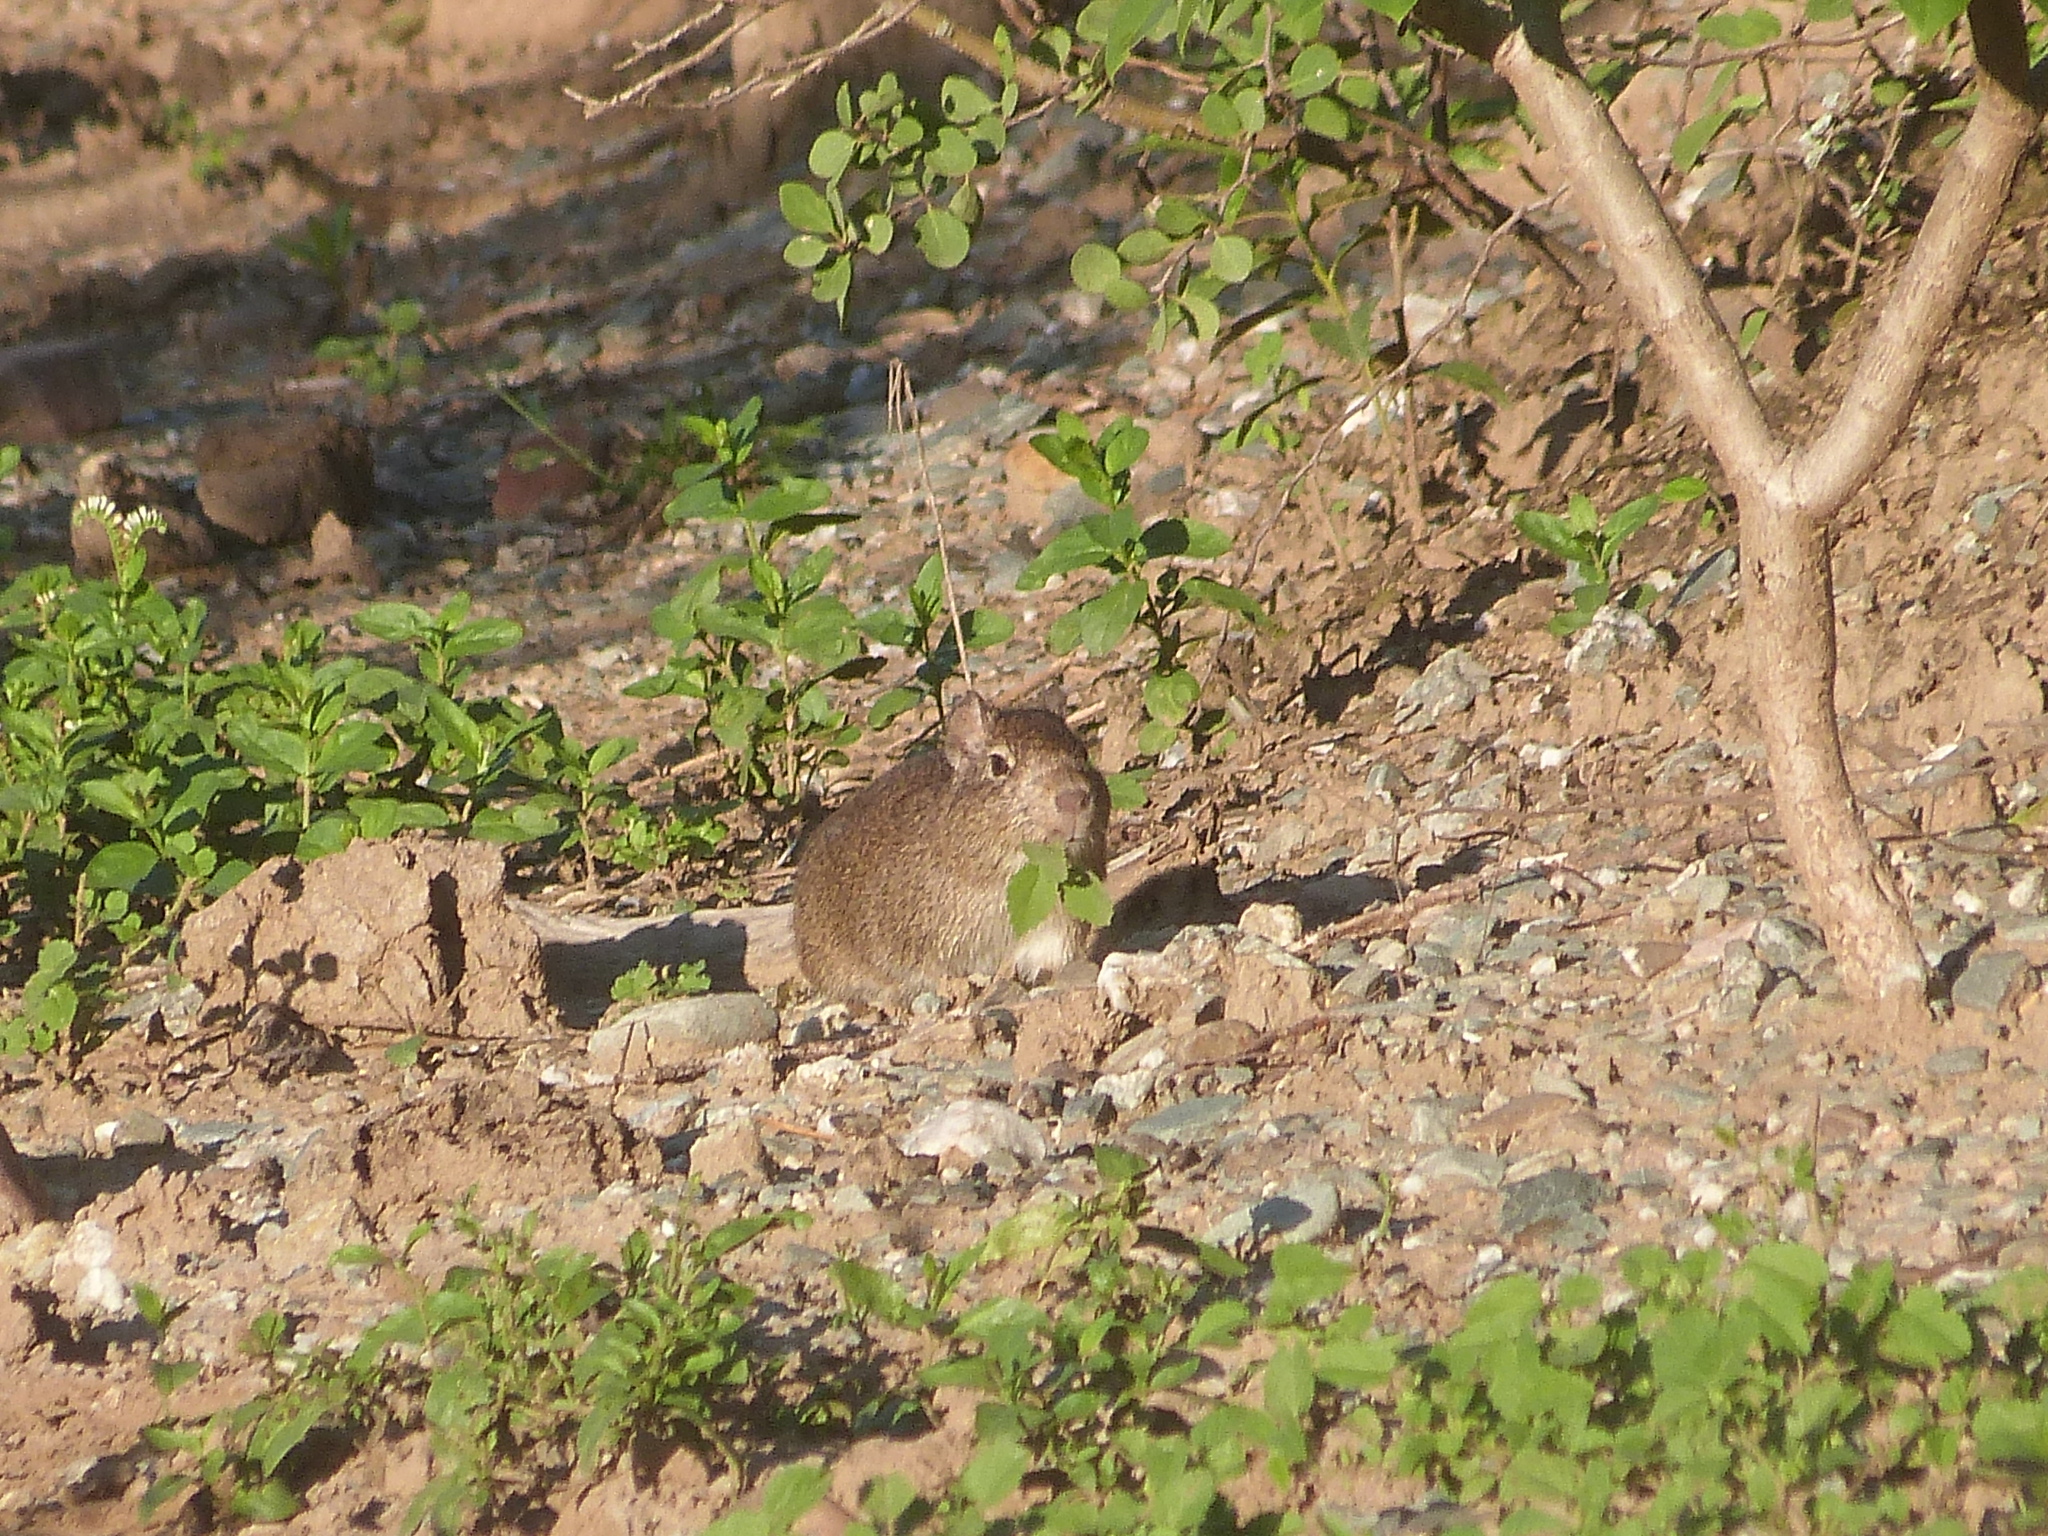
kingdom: Animalia
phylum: Chordata
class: Mammalia
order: Rodentia
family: Caviidae
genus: Cavia
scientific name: Cavia aperea
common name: Brazilian guinea pig
